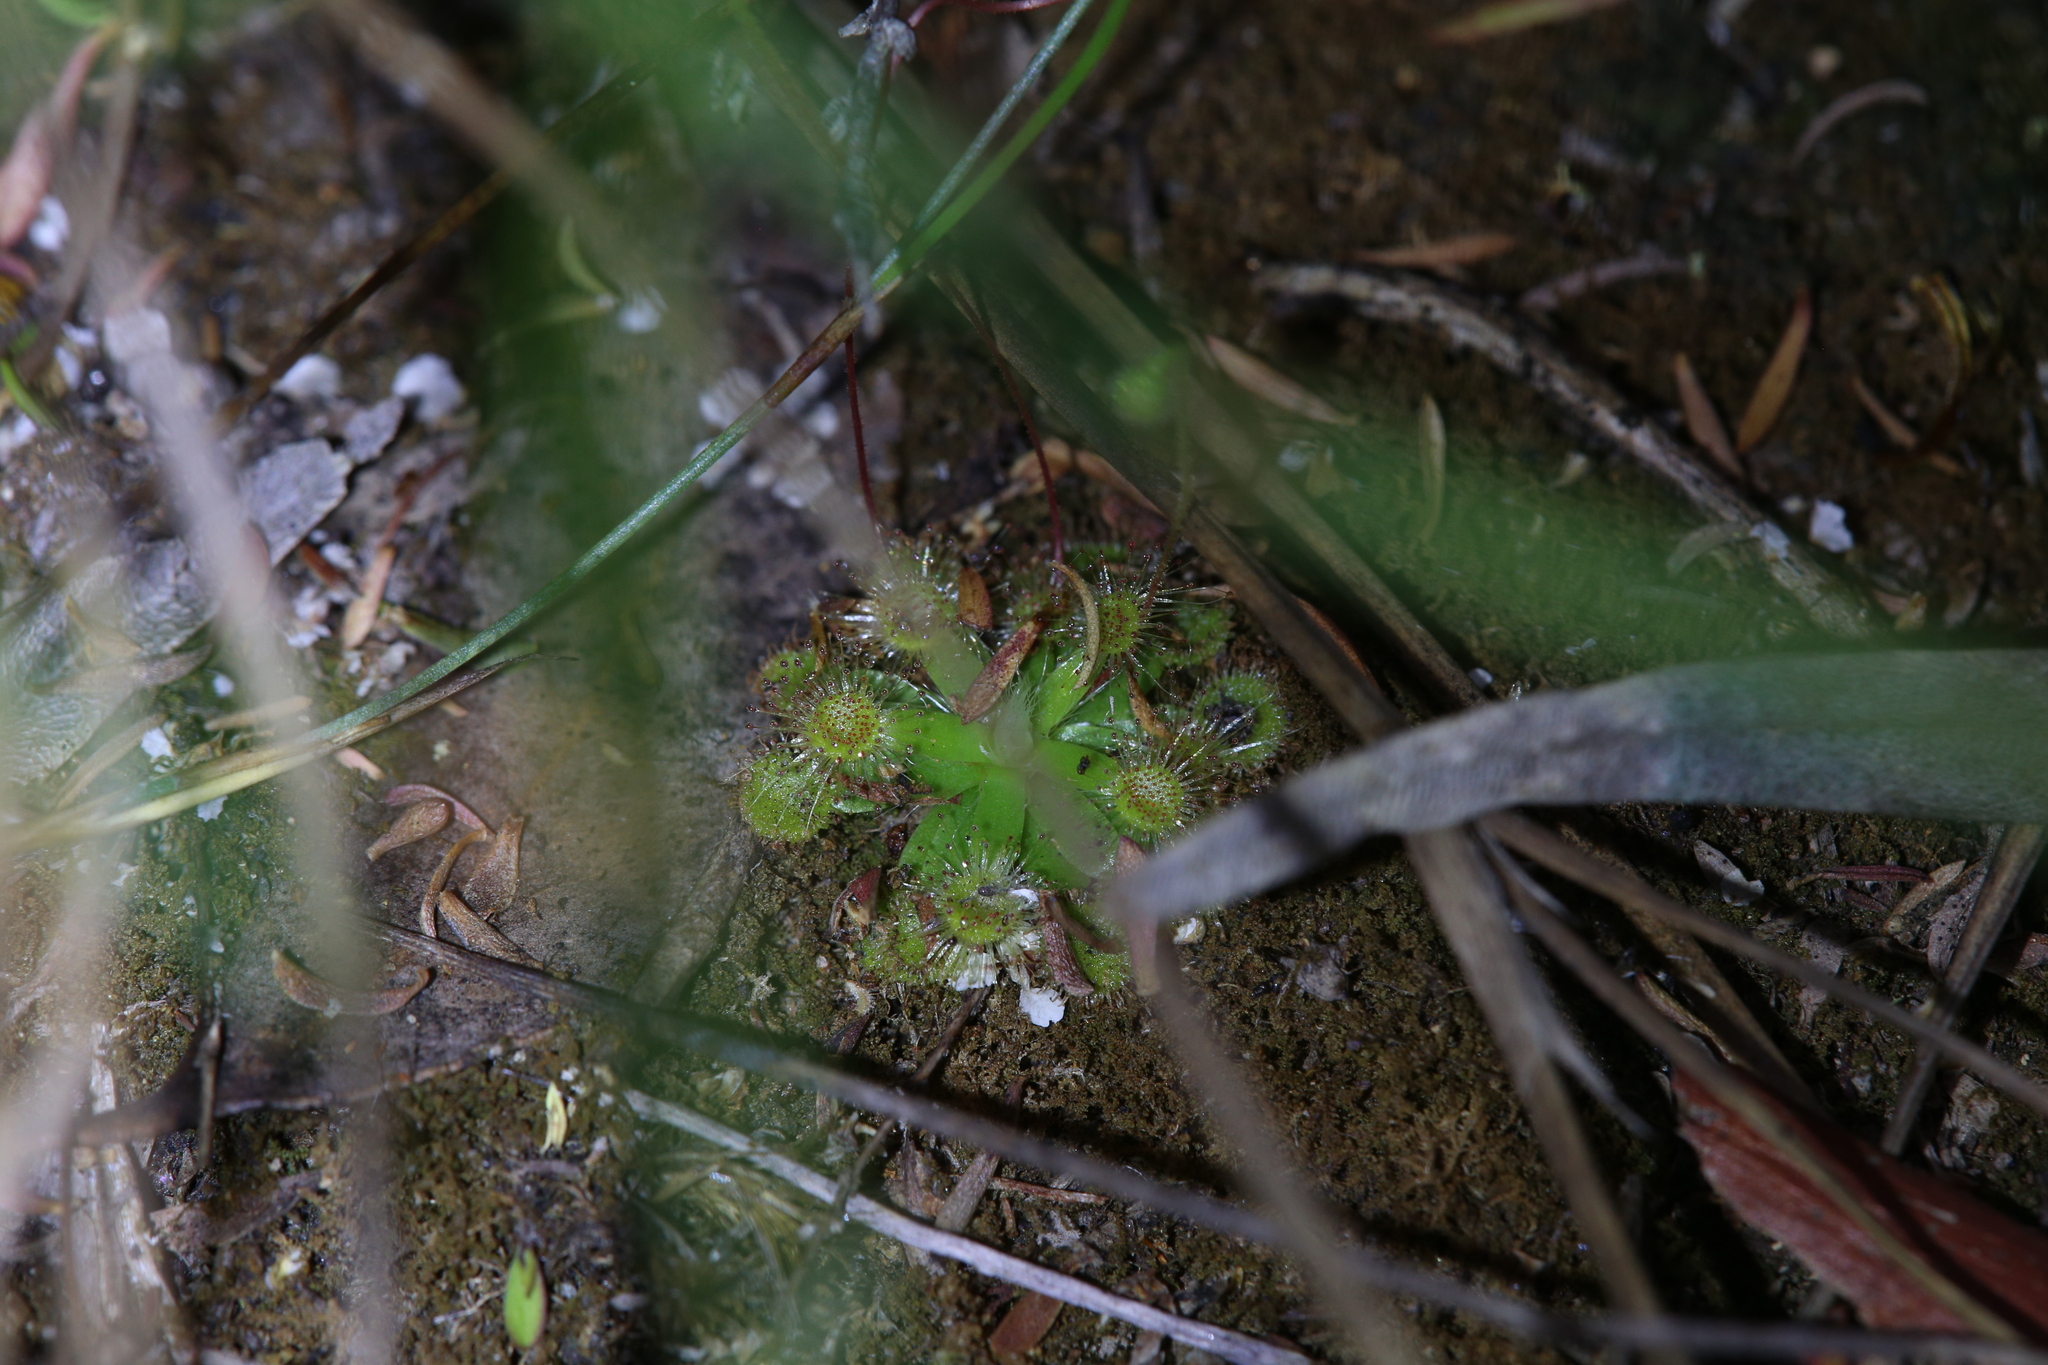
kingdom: Plantae
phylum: Tracheophyta
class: Magnoliopsida
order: Caryophyllales
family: Droseraceae
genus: Drosera
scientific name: Drosera pulchella
